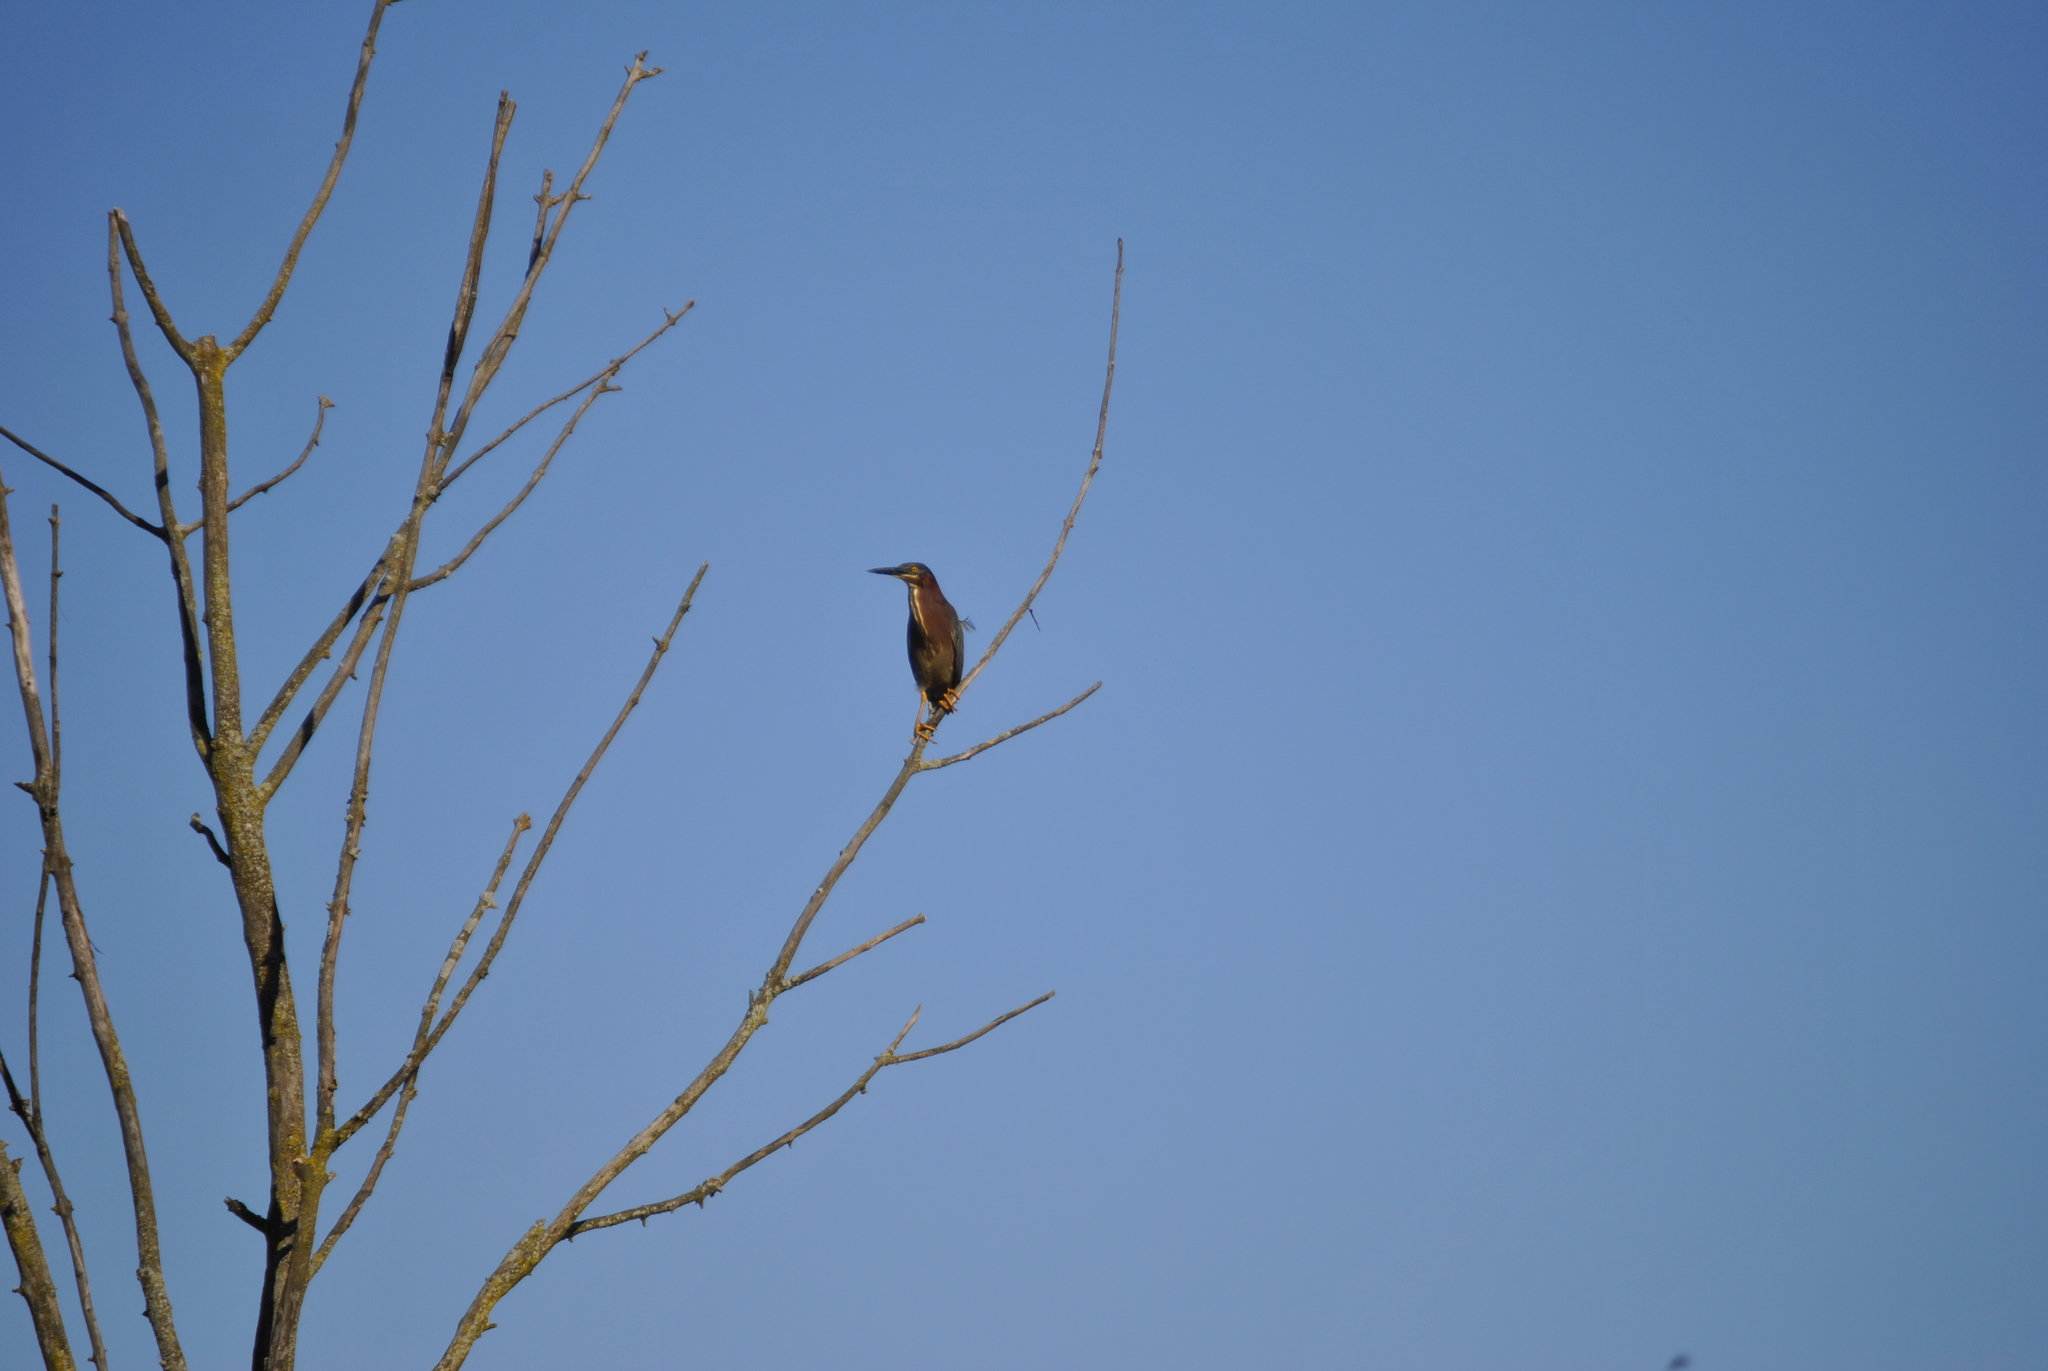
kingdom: Animalia
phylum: Chordata
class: Aves
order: Pelecaniformes
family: Ardeidae
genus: Butorides
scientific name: Butorides virescens
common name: Green heron
